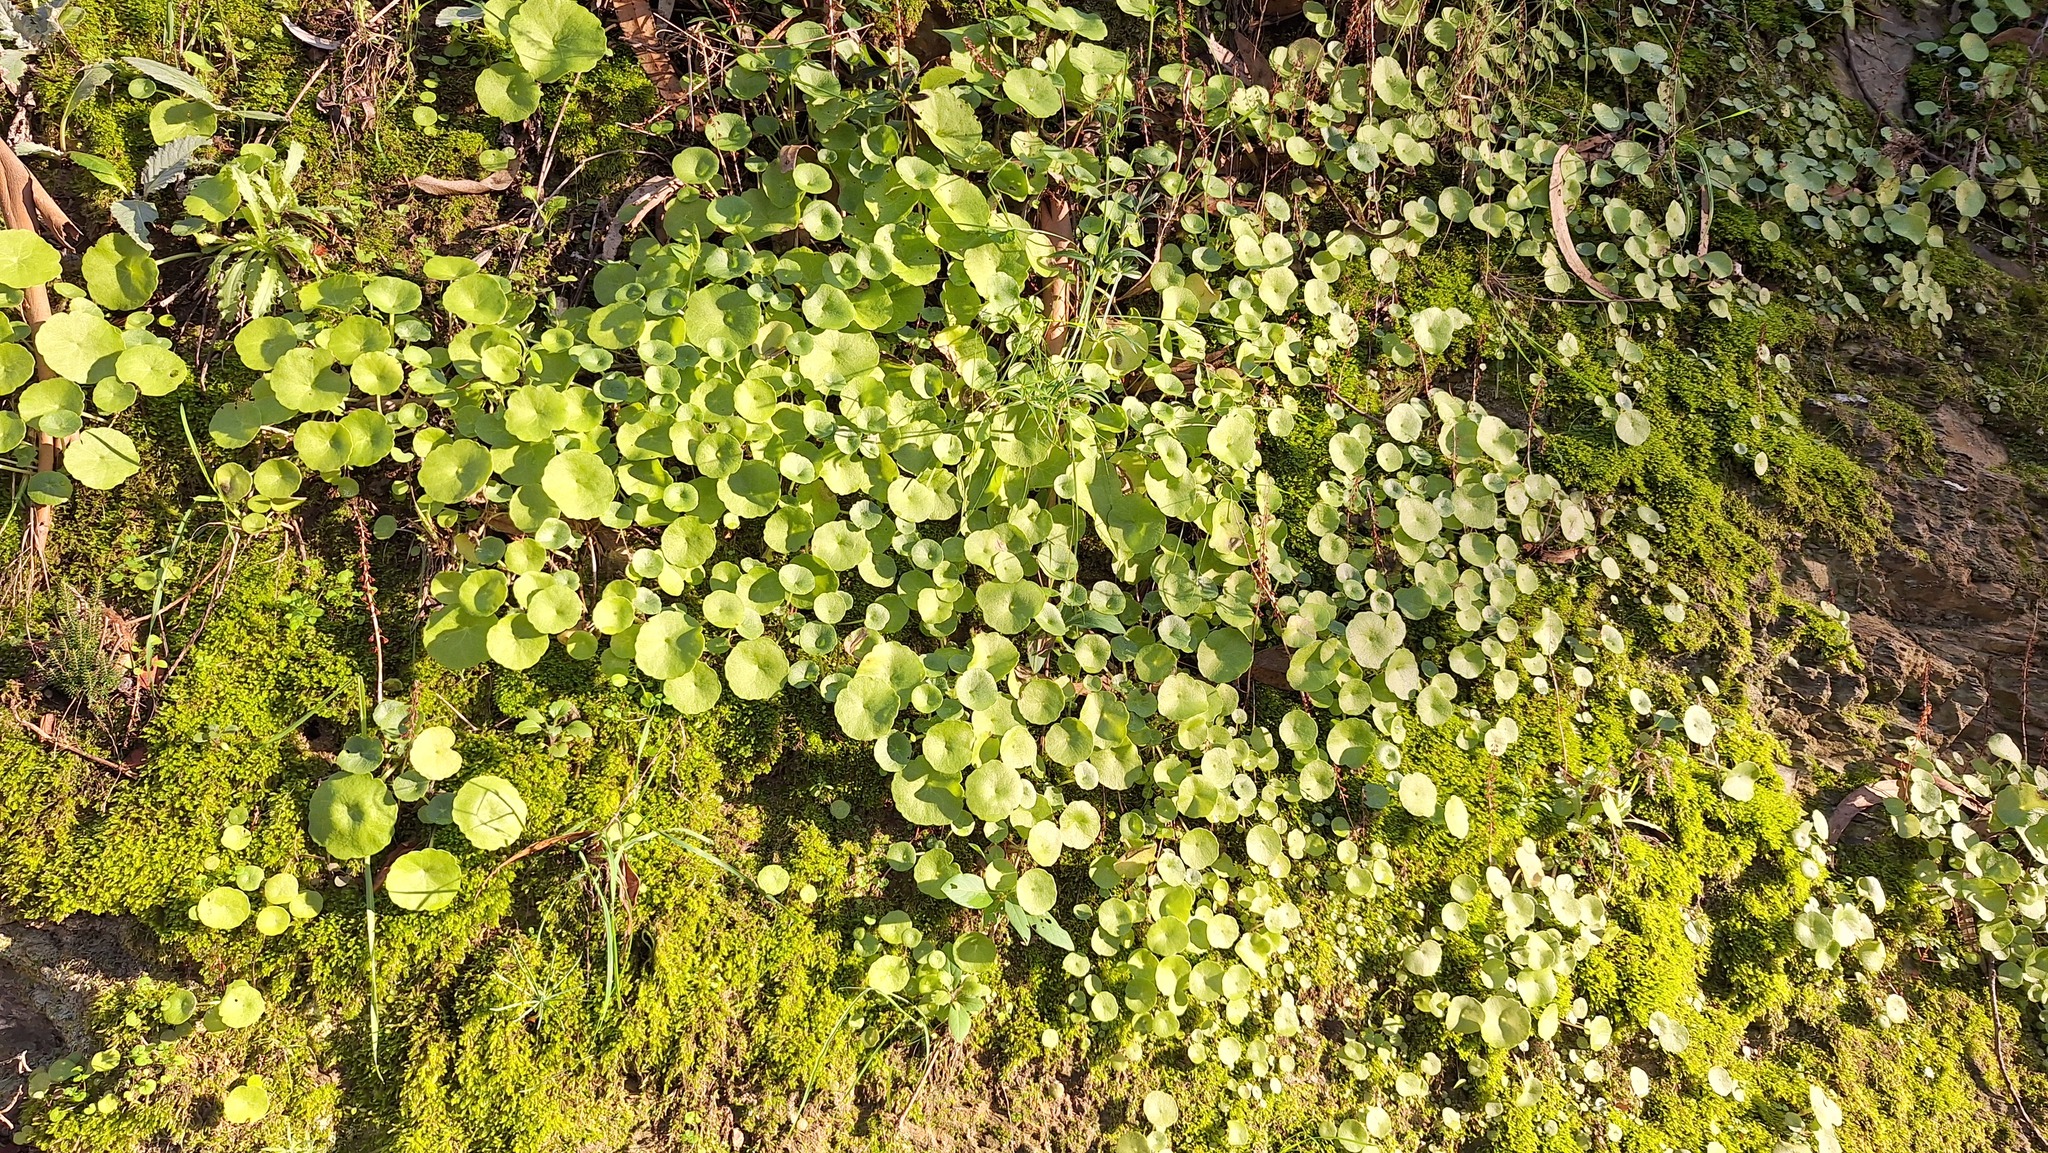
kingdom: Plantae
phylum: Tracheophyta
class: Magnoliopsida
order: Saxifragales
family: Crassulaceae
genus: Umbilicus
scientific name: Umbilicus rupestris
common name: Navelwort
